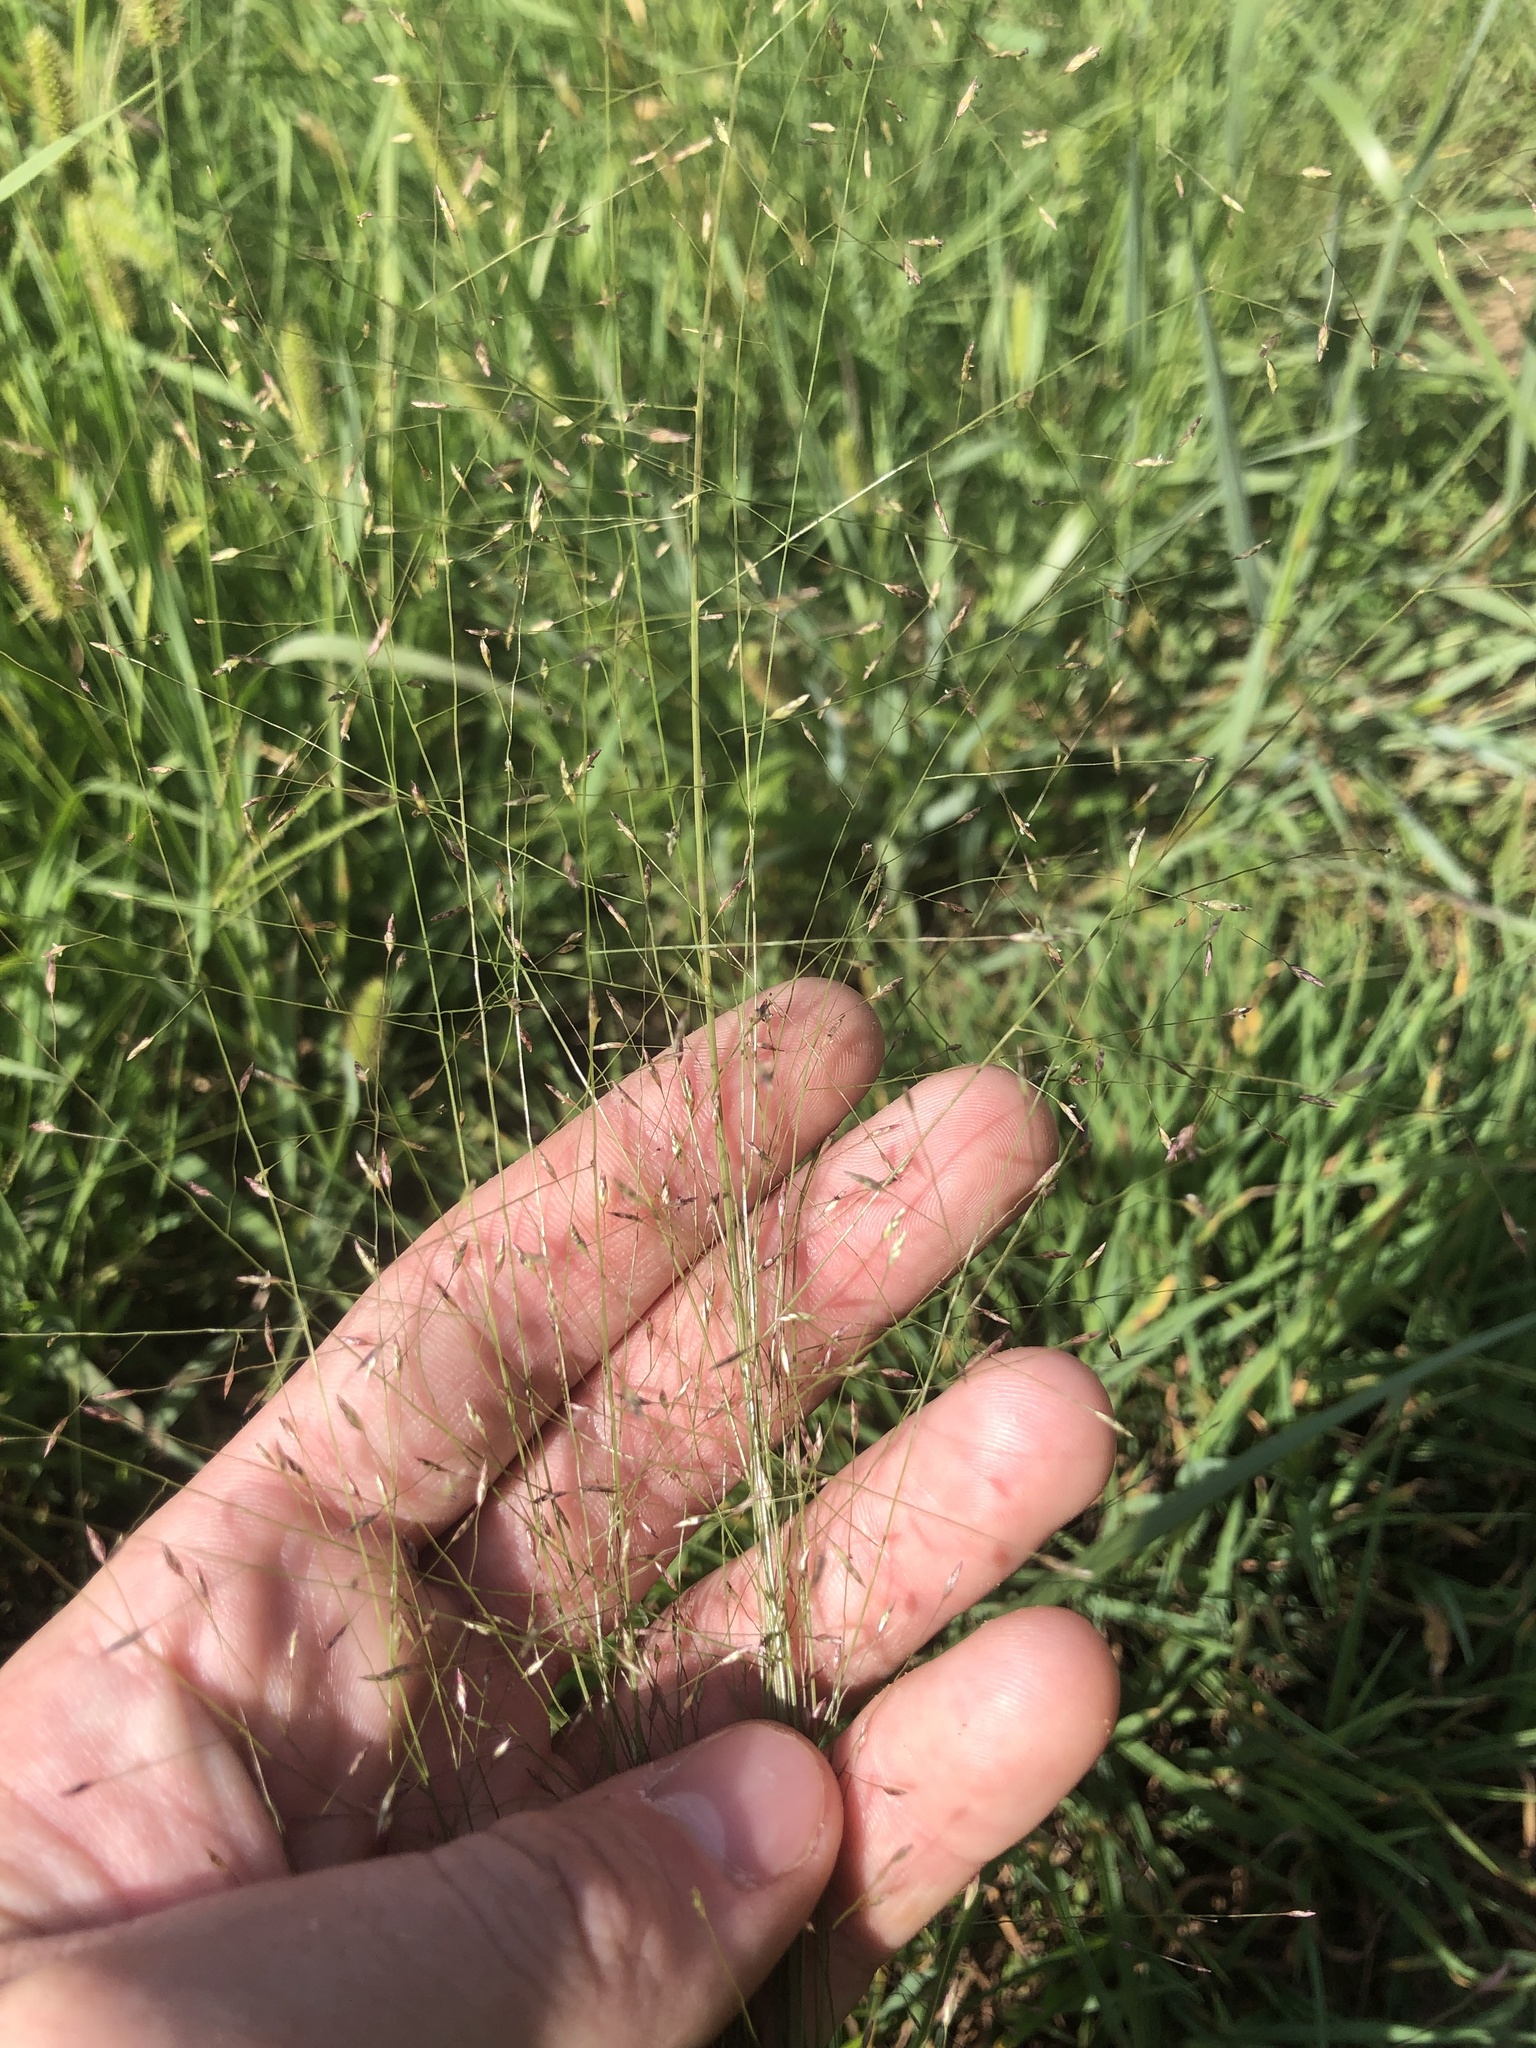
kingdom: Plantae
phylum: Tracheophyta
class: Liliopsida
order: Poales
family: Poaceae
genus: Eragrostis
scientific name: Eragrostis hirsuta
